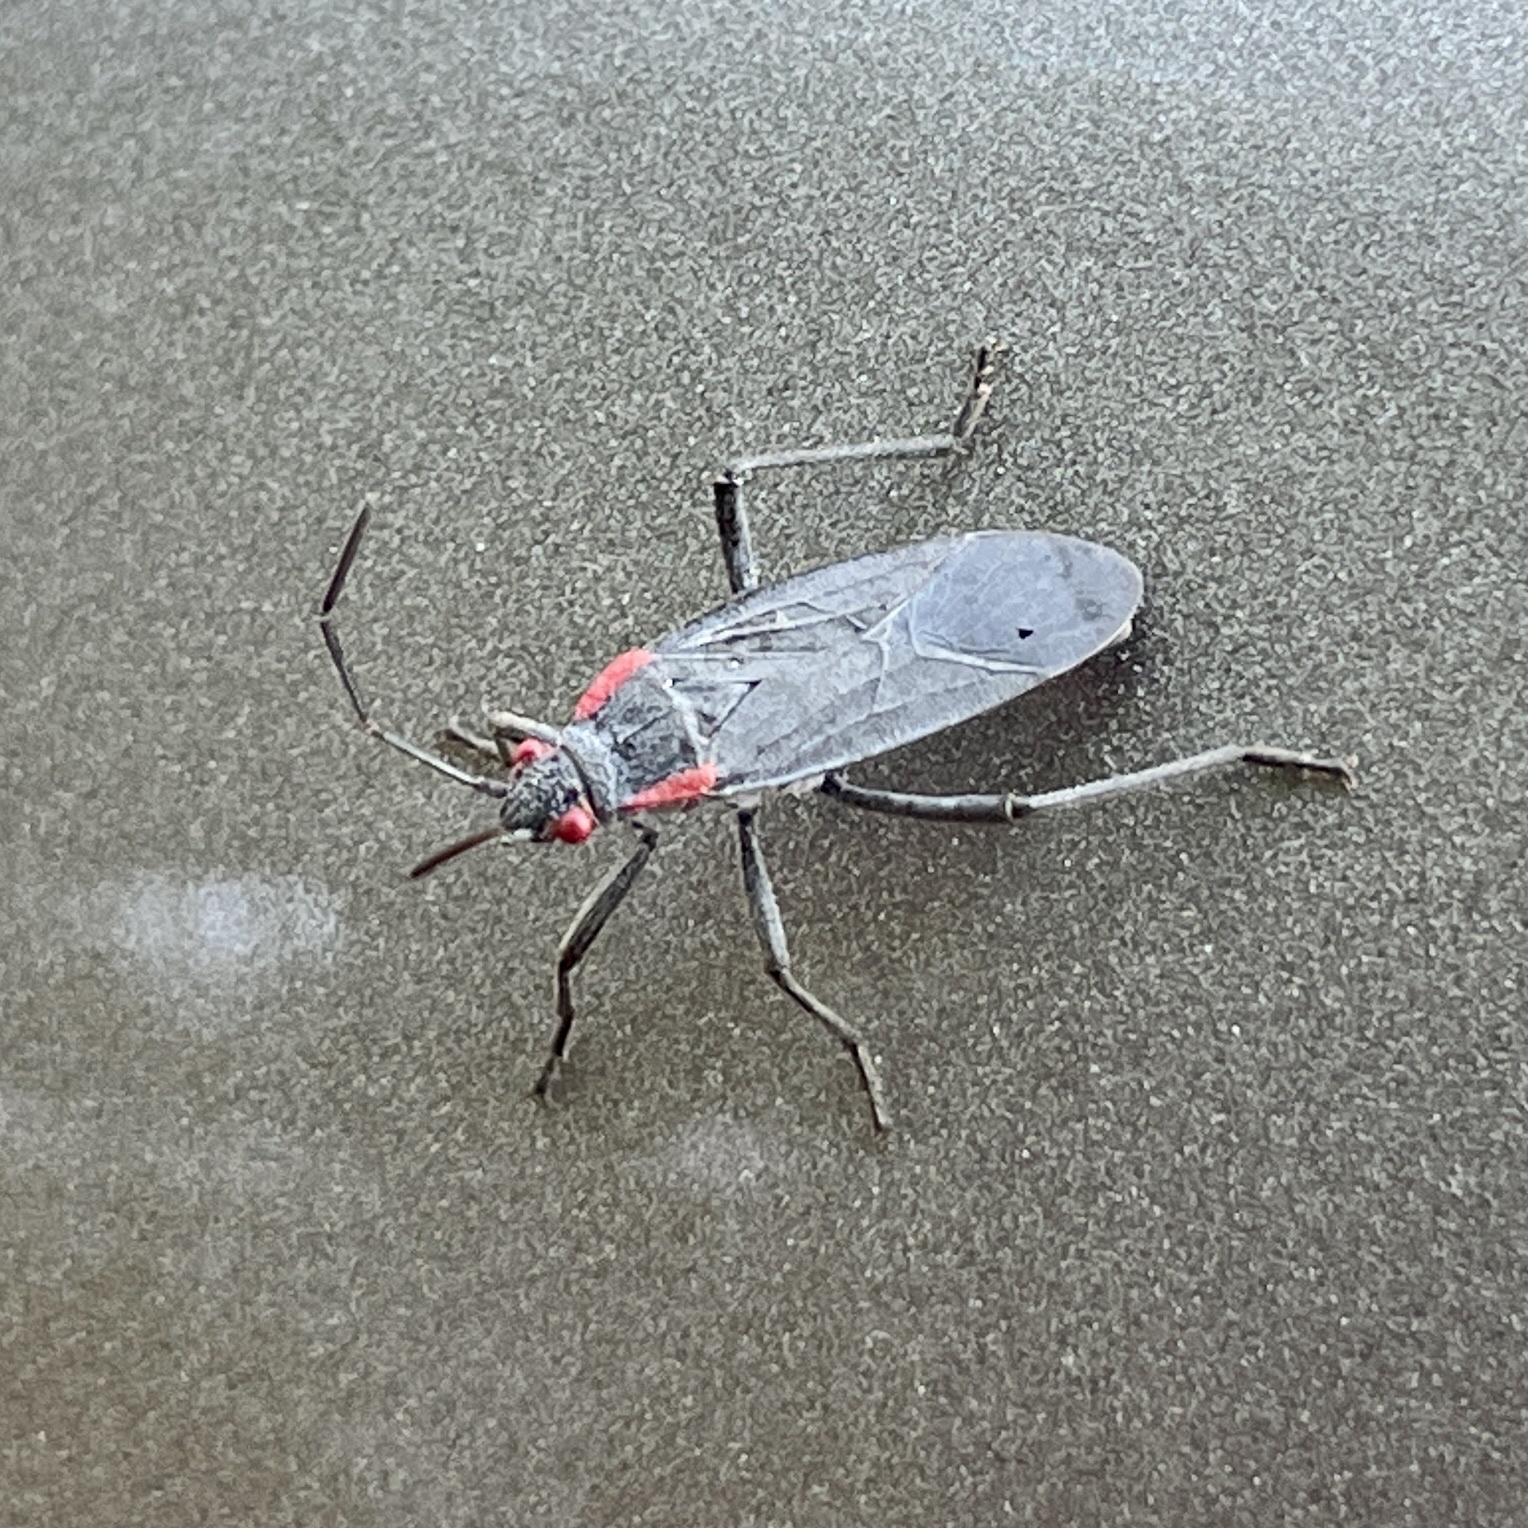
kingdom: Animalia
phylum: Arthropoda
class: Insecta
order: Hemiptera
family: Rhopalidae
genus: Jadera
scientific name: Jadera haematoloma
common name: Red-shouldered bug
